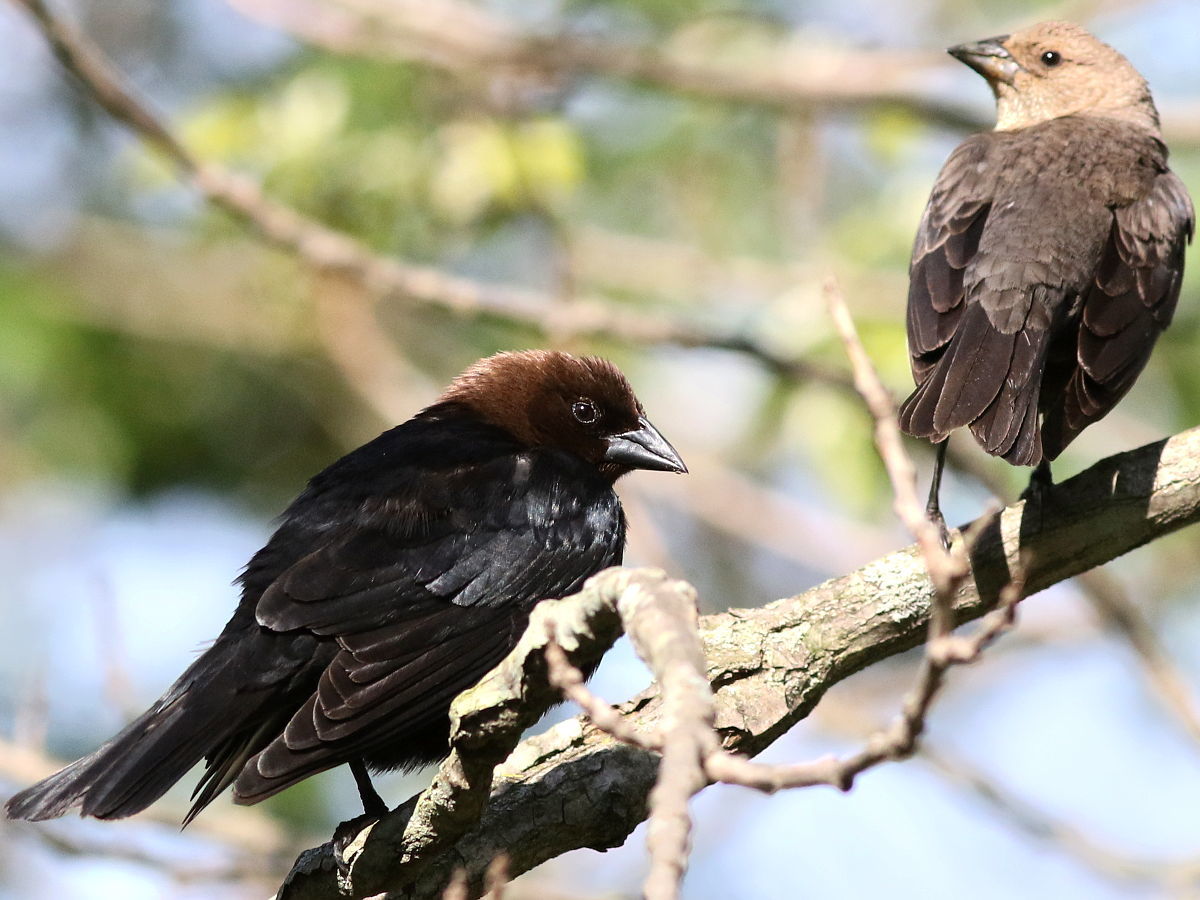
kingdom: Animalia
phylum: Chordata
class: Aves
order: Passeriformes
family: Icteridae
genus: Molothrus
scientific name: Molothrus ater
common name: Brown-headed cowbird
